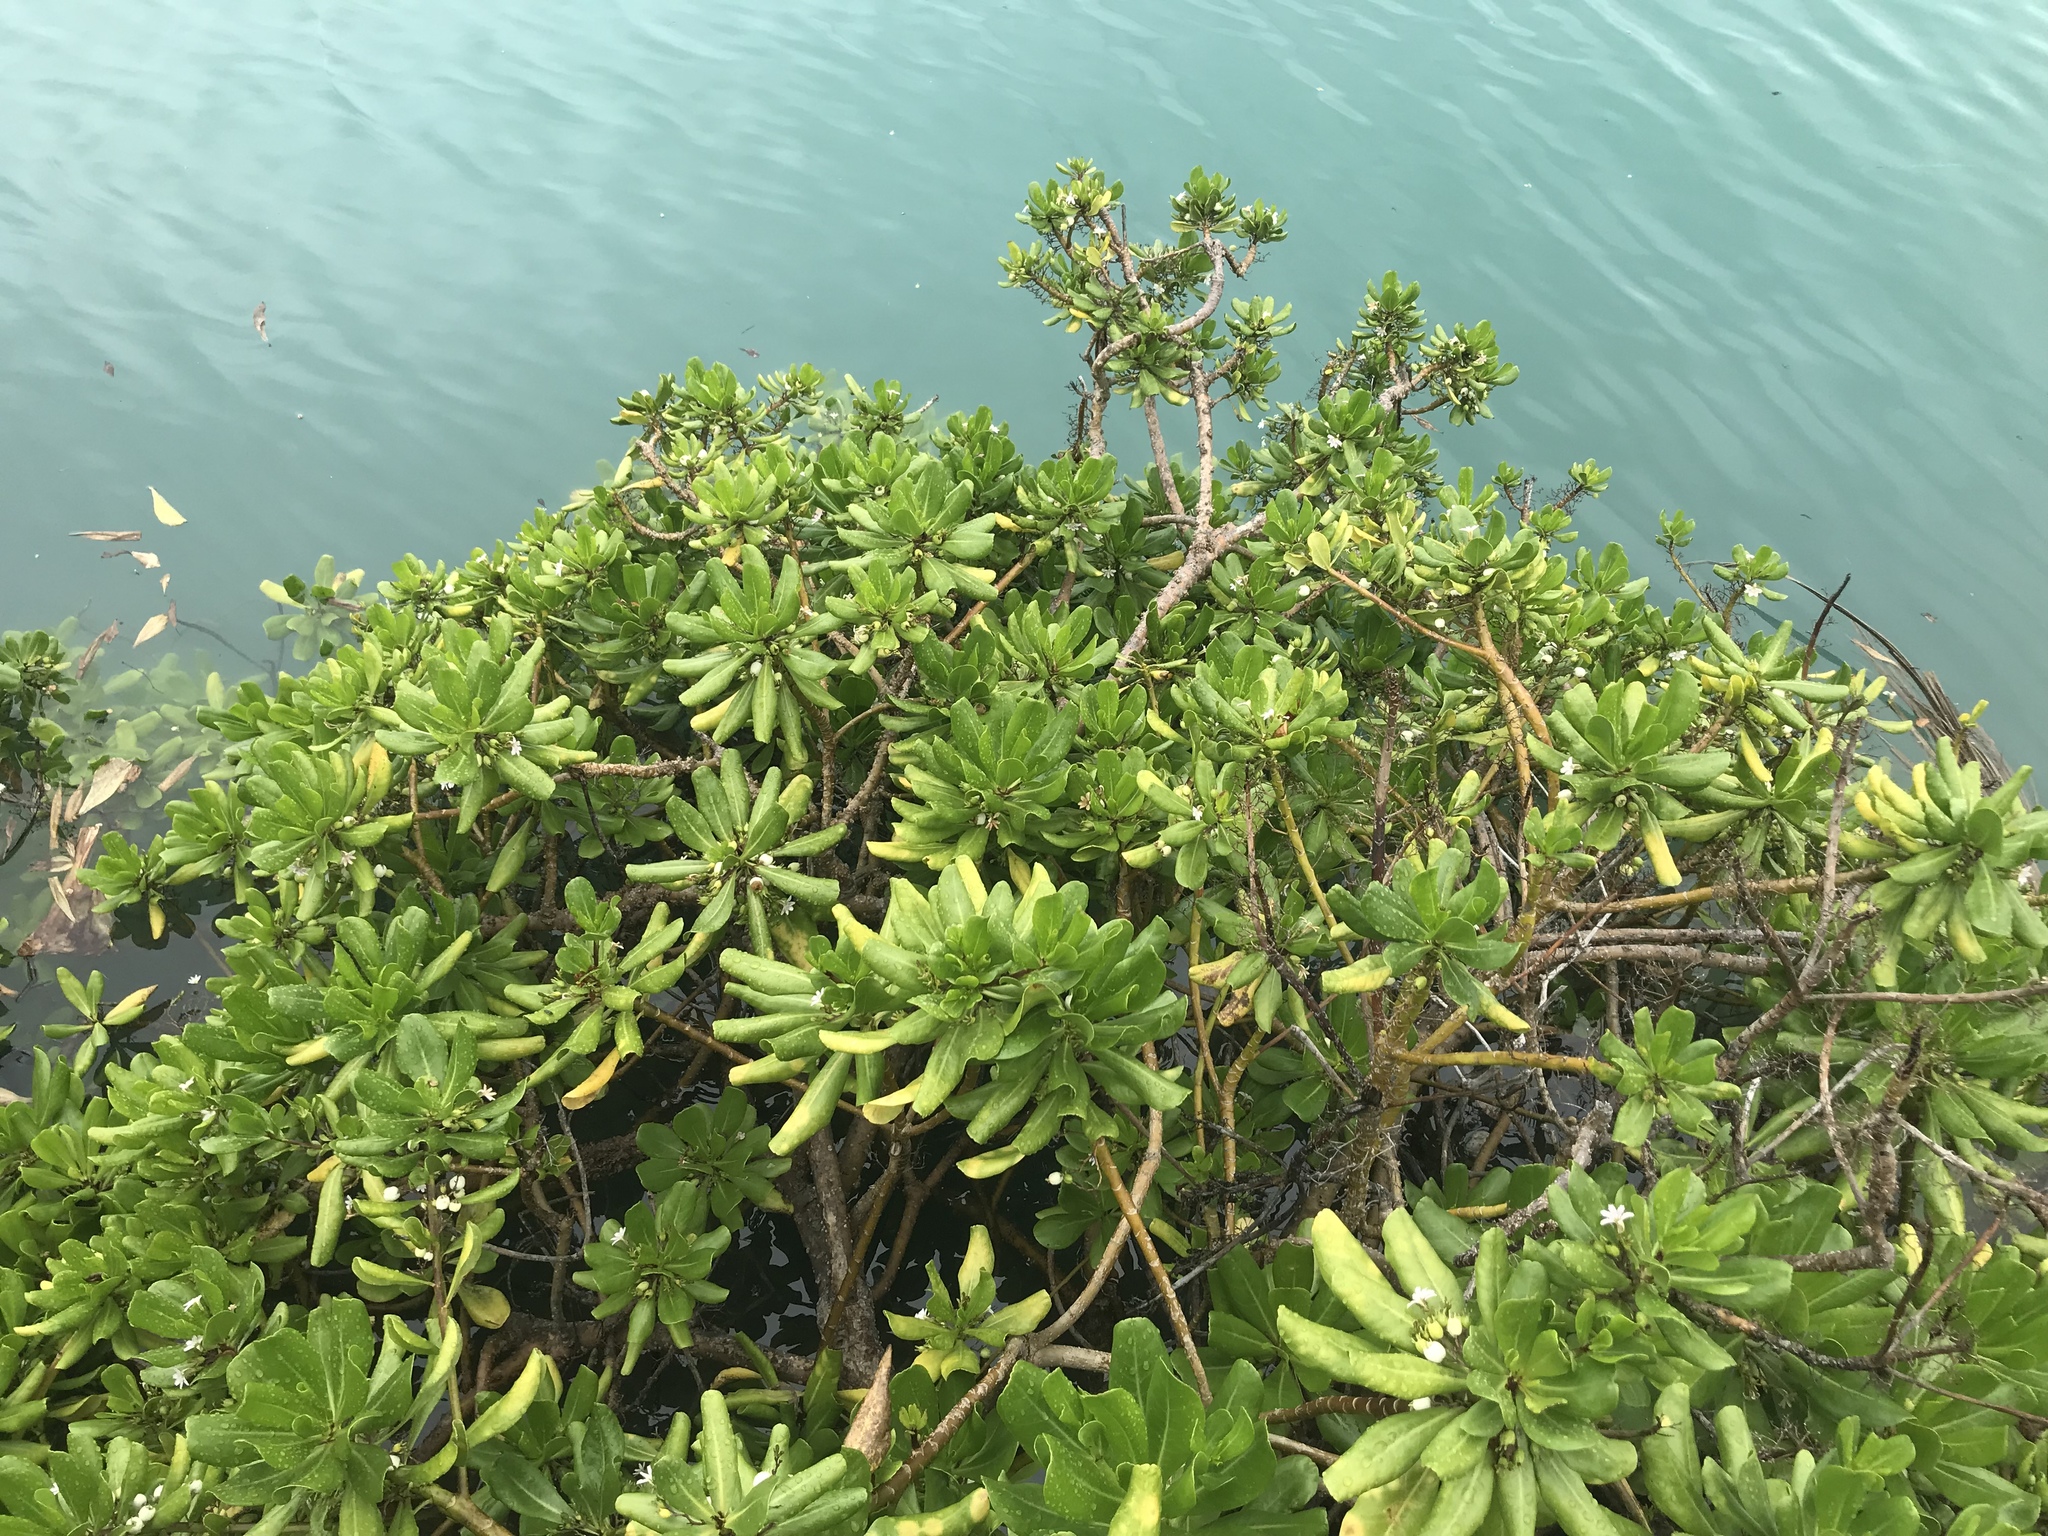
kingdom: Plantae
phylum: Tracheophyta
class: Magnoliopsida
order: Asterales
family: Goodeniaceae
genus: Scaevola
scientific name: Scaevola taccada
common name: Sea lettucetree
